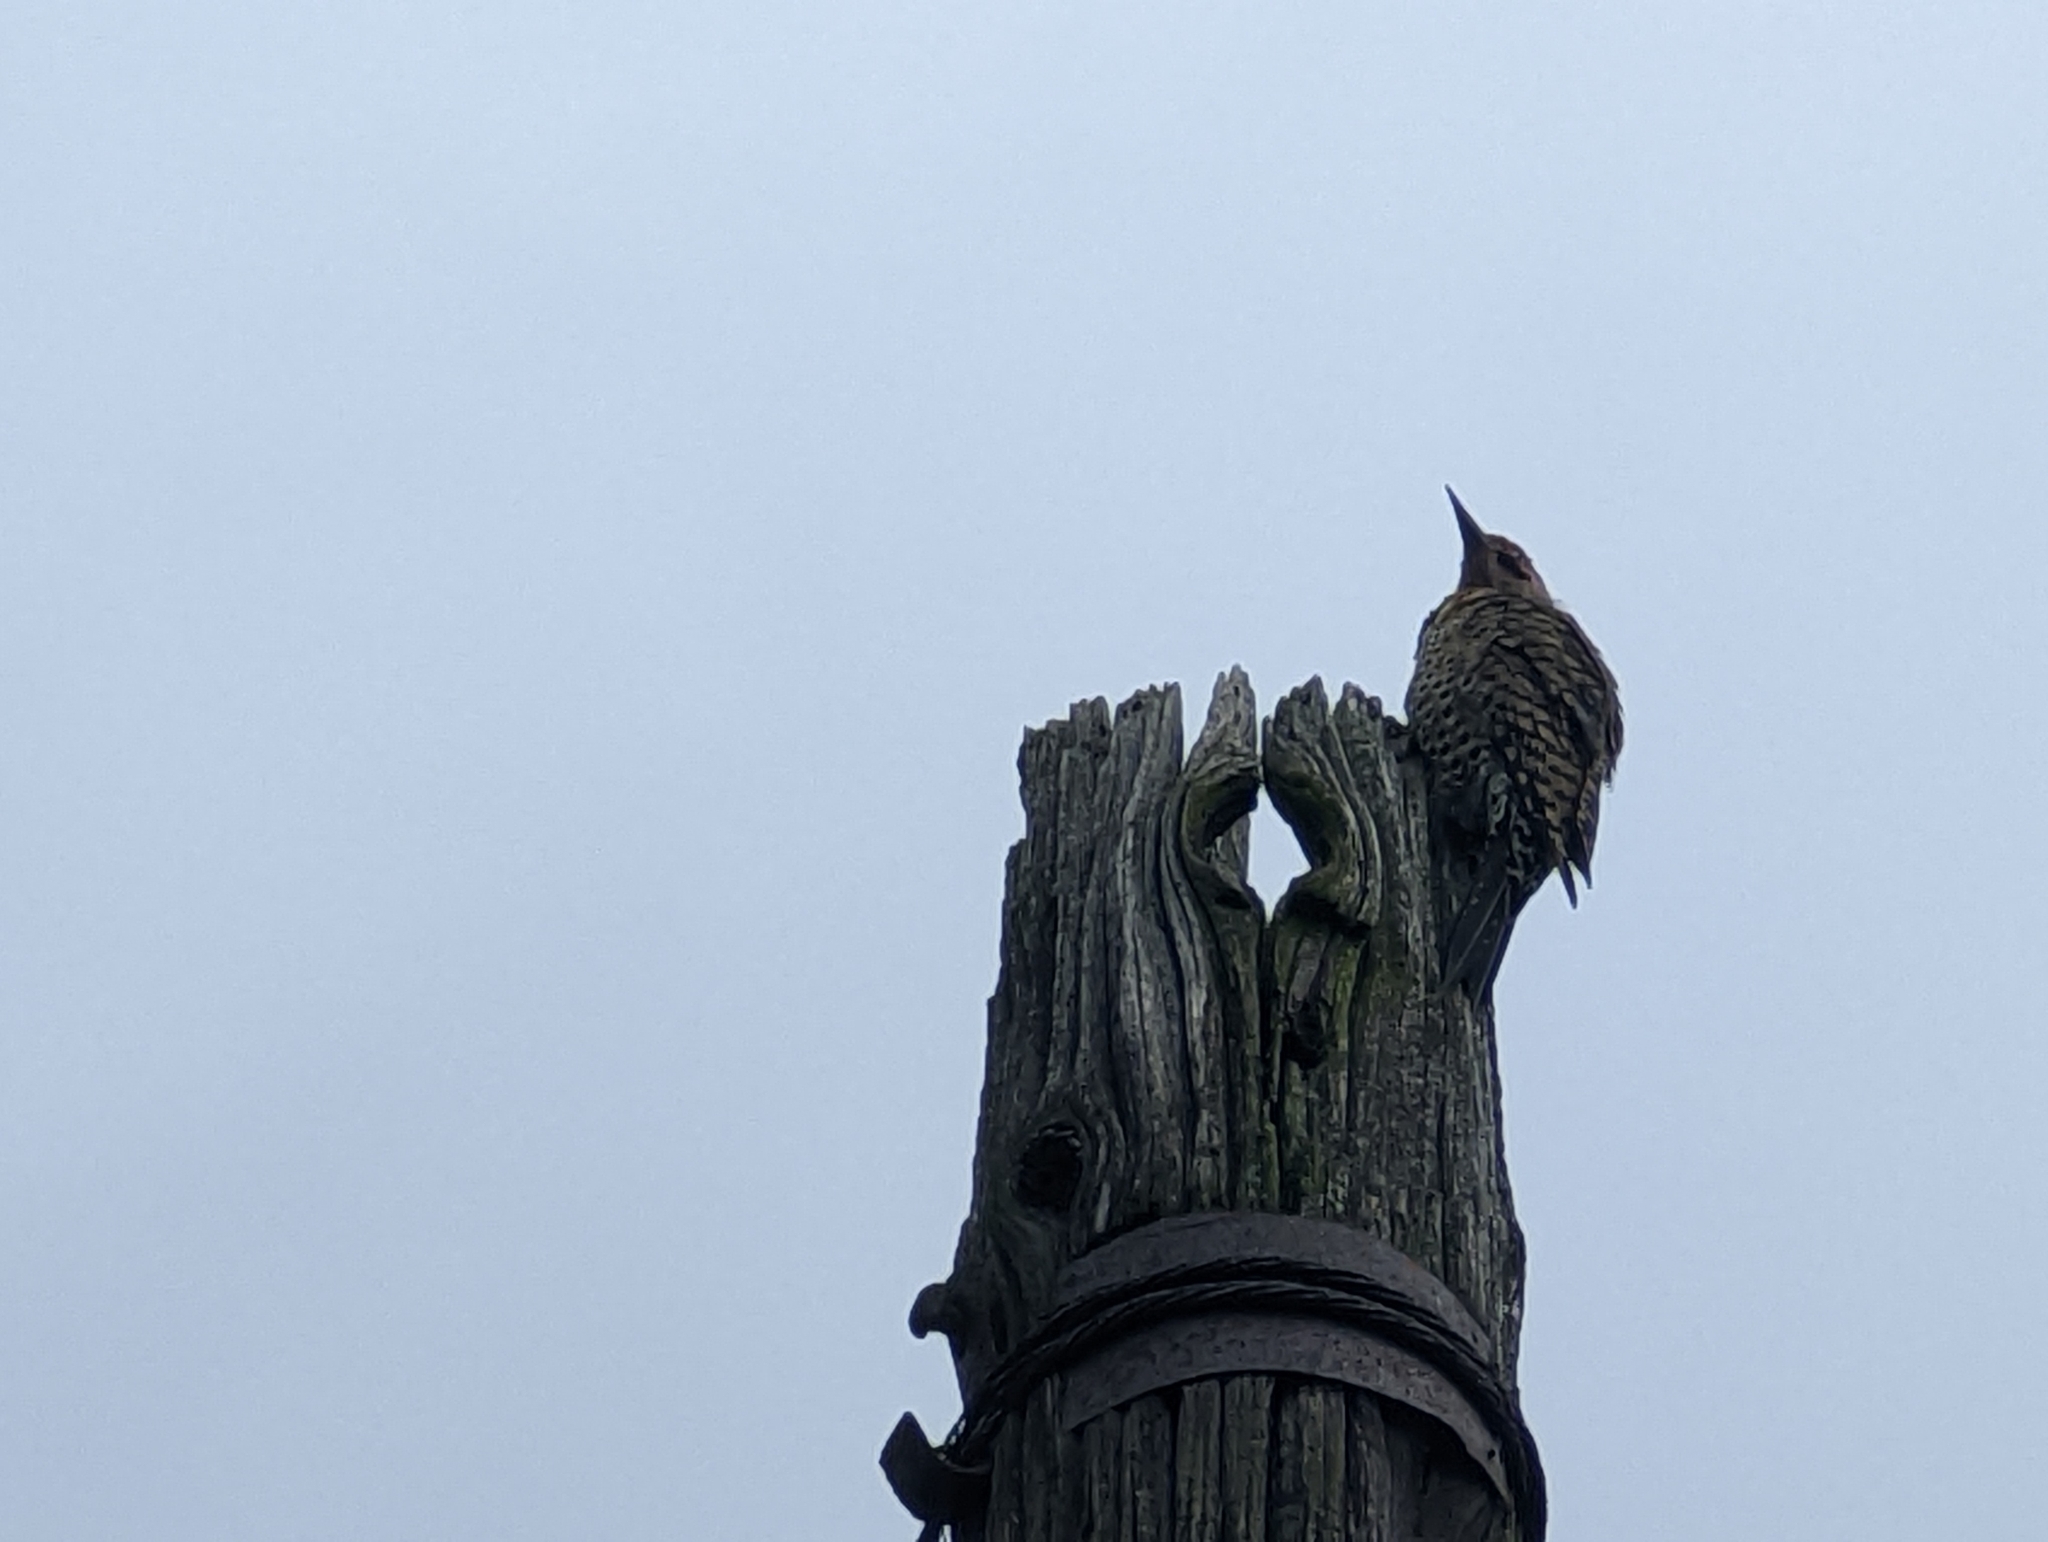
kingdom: Animalia
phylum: Chordata
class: Aves
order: Piciformes
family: Picidae
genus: Colaptes
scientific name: Colaptes auratus
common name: Northern flicker
